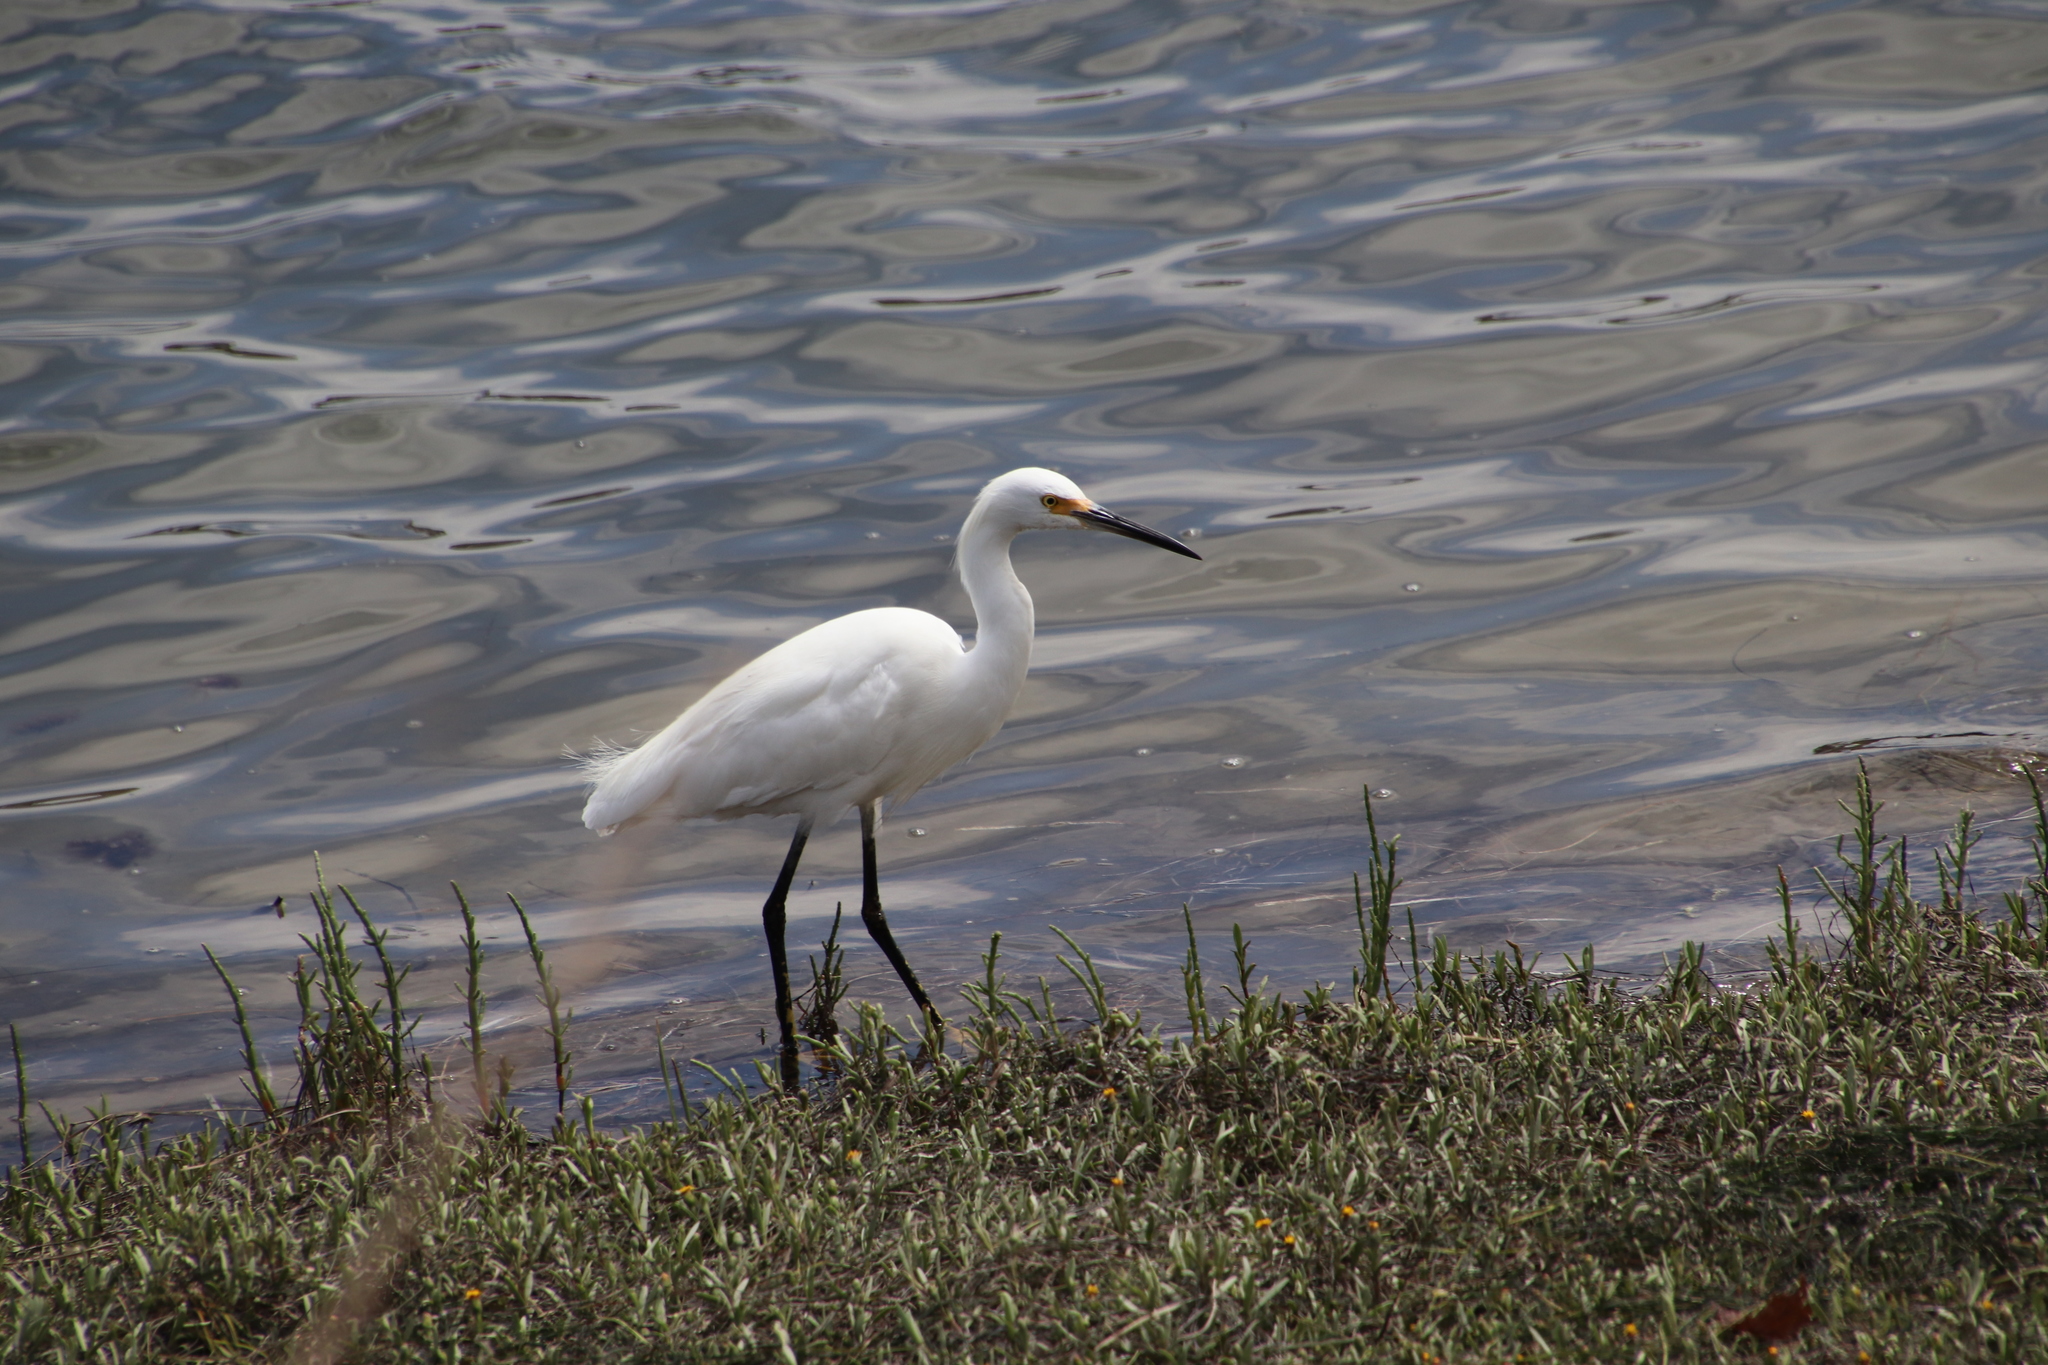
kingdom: Animalia
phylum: Chordata
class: Aves
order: Pelecaniformes
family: Ardeidae
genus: Egretta
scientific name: Egretta thula
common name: Snowy egret
